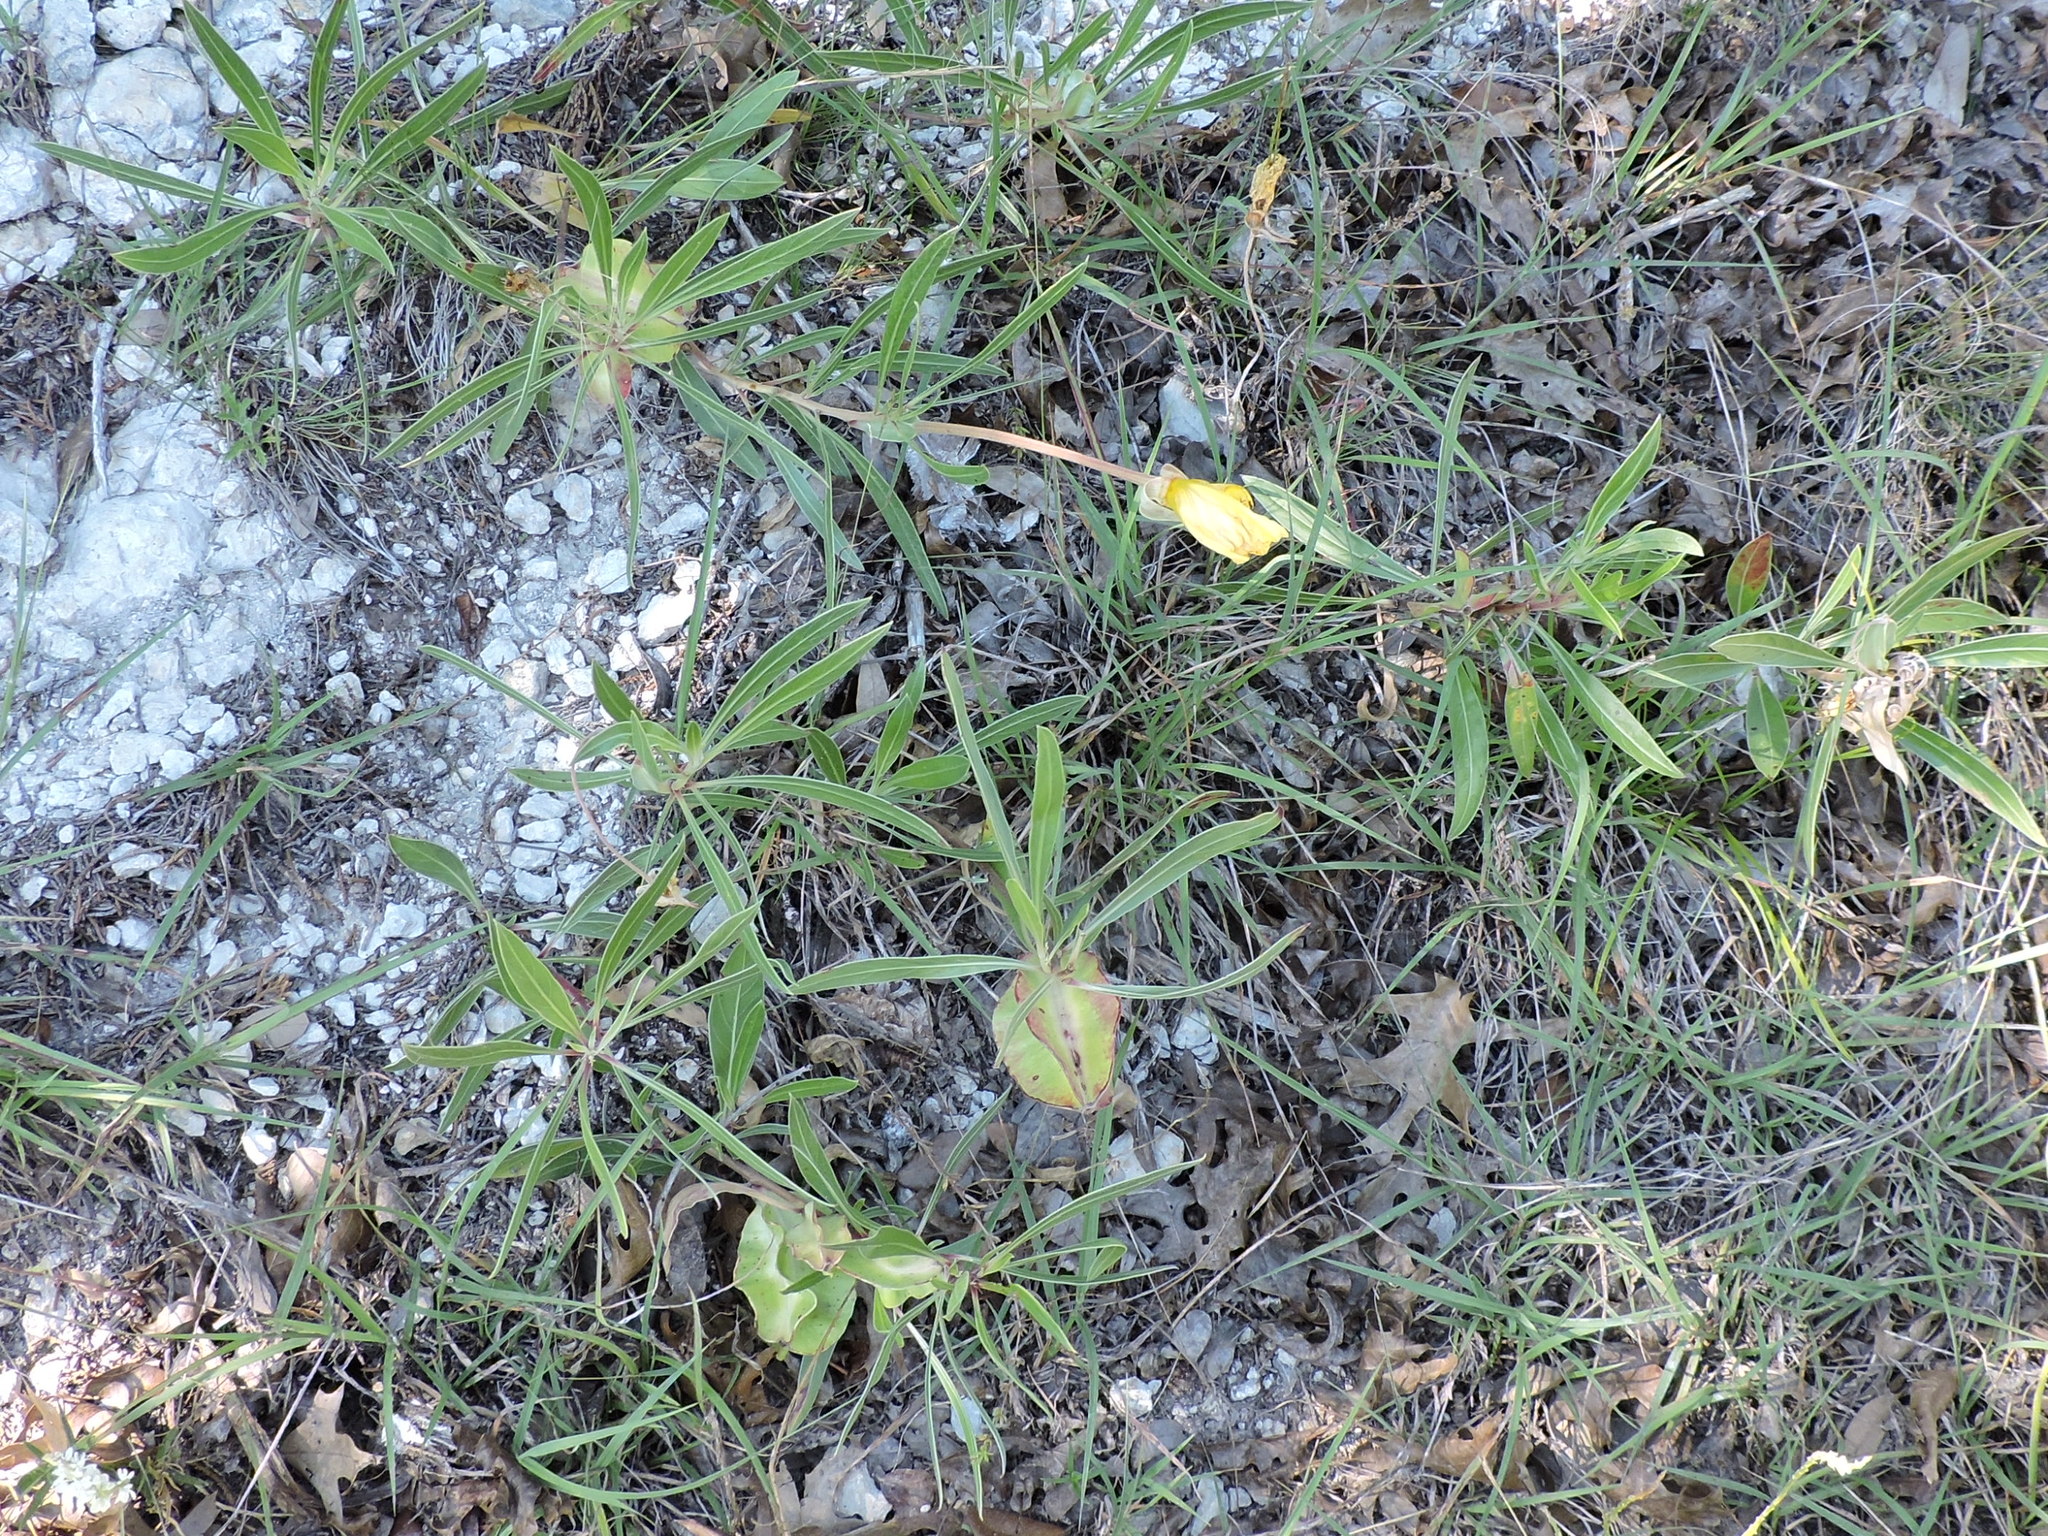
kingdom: Plantae
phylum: Tracheophyta
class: Magnoliopsida
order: Myrtales
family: Onagraceae
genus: Oenothera
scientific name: Oenothera macrocarpa
